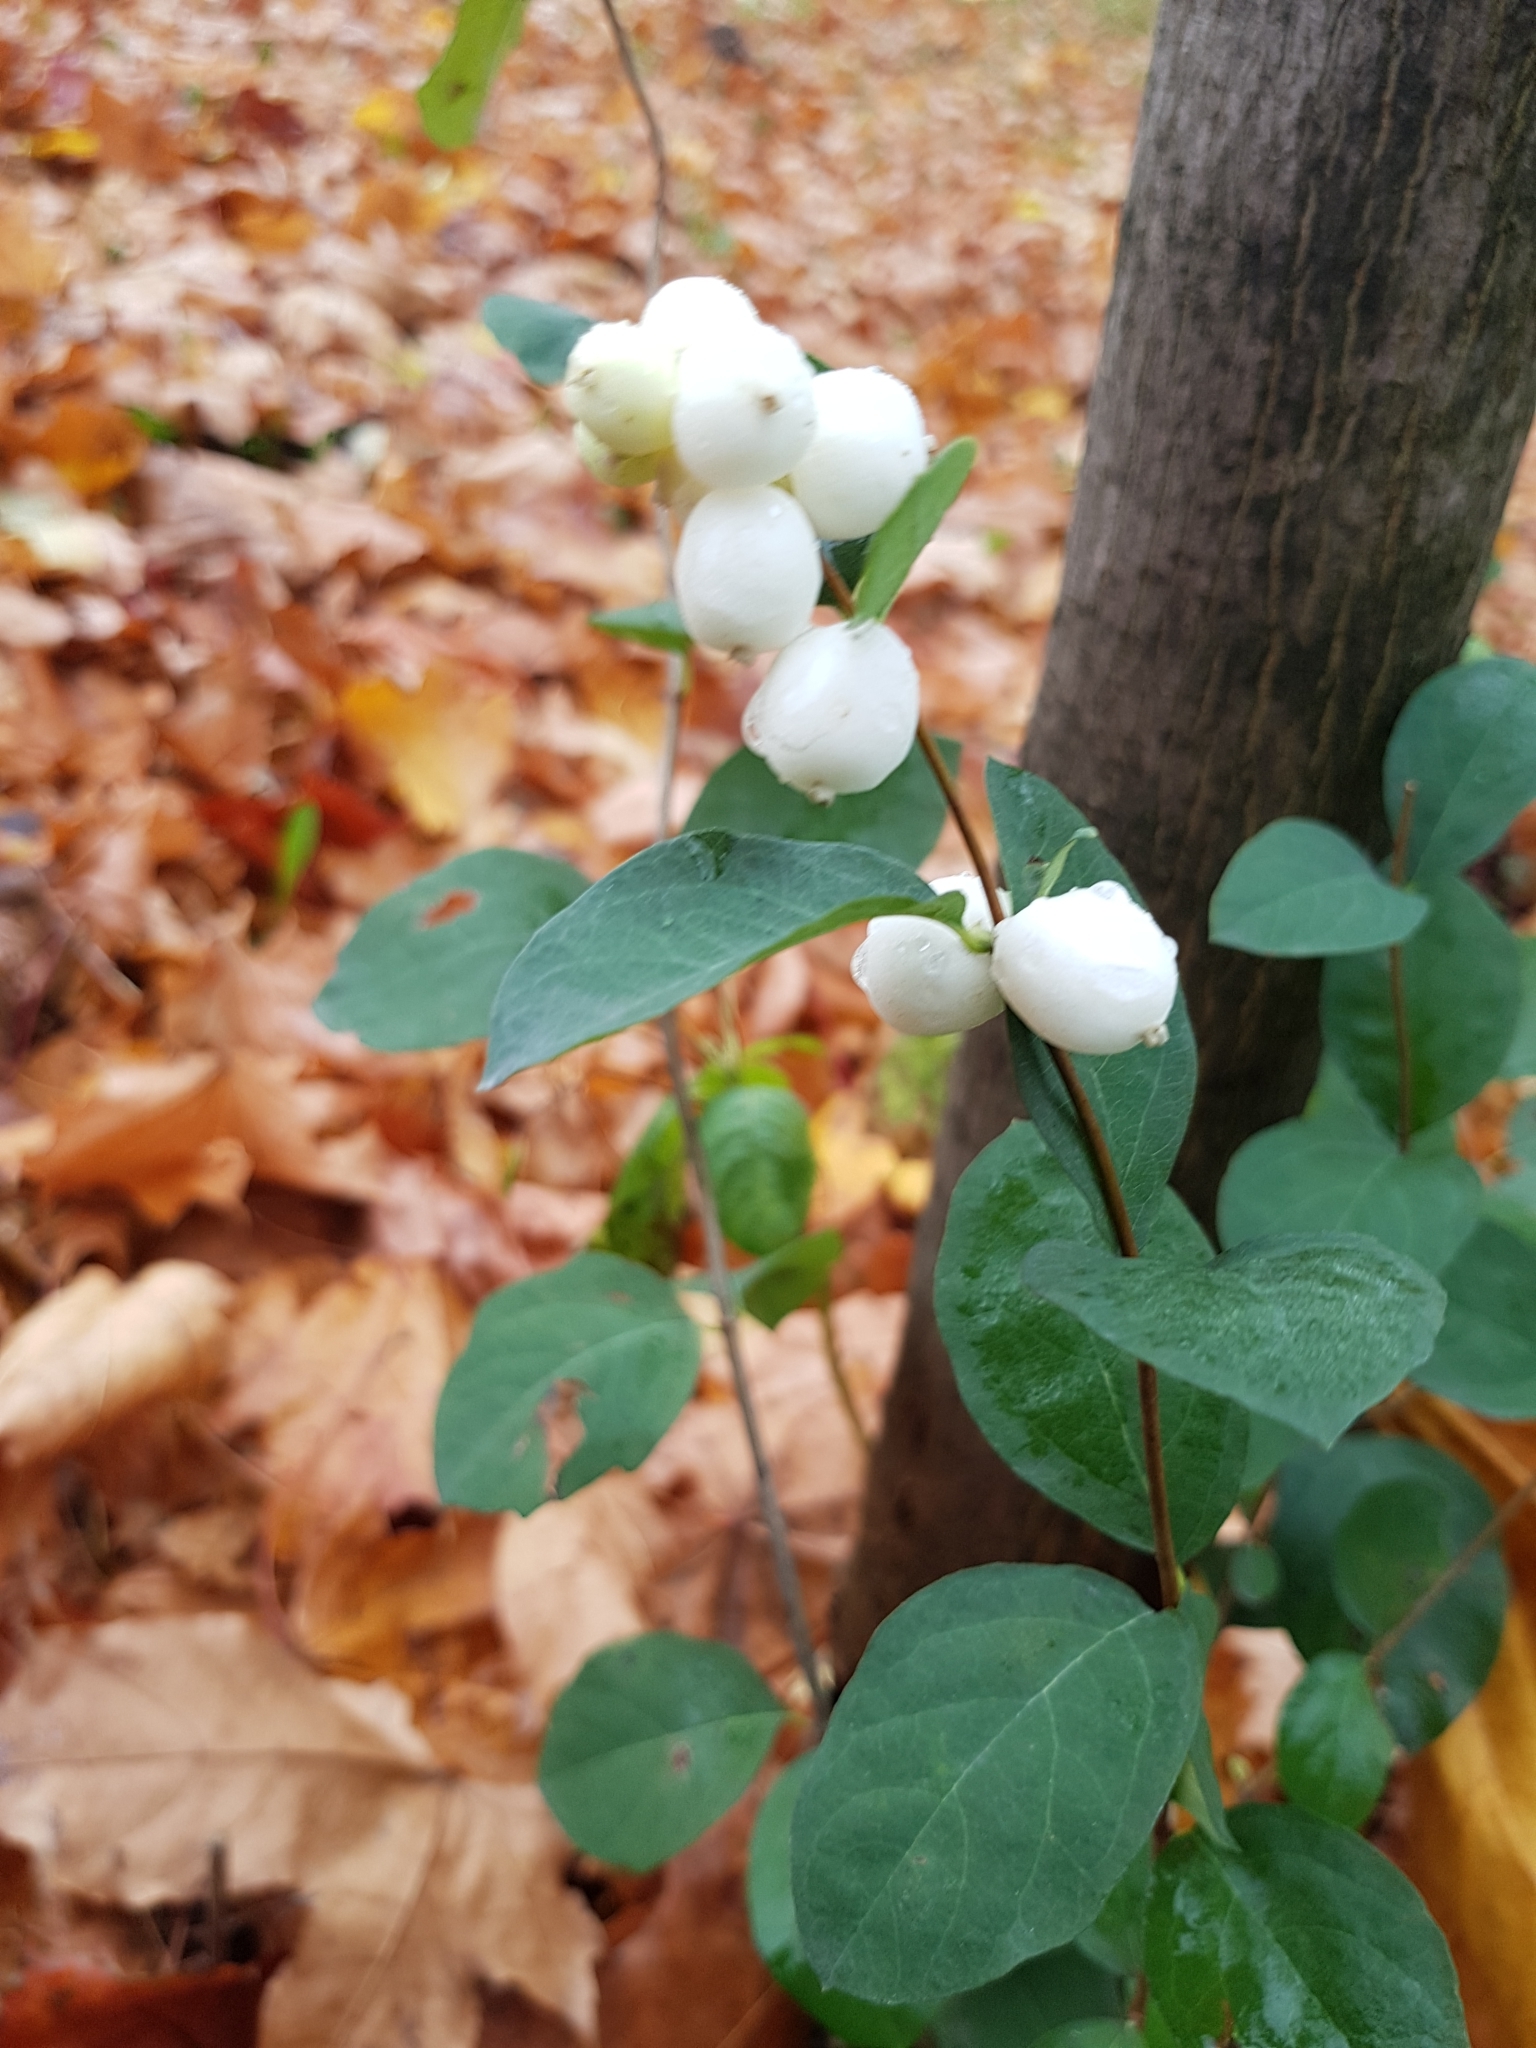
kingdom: Plantae
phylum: Tracheophyta
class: Magnoliopsida
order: Dipsacales
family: Caprifoliaceae
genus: Symphoricarpos
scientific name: Symphoricarpos albus
